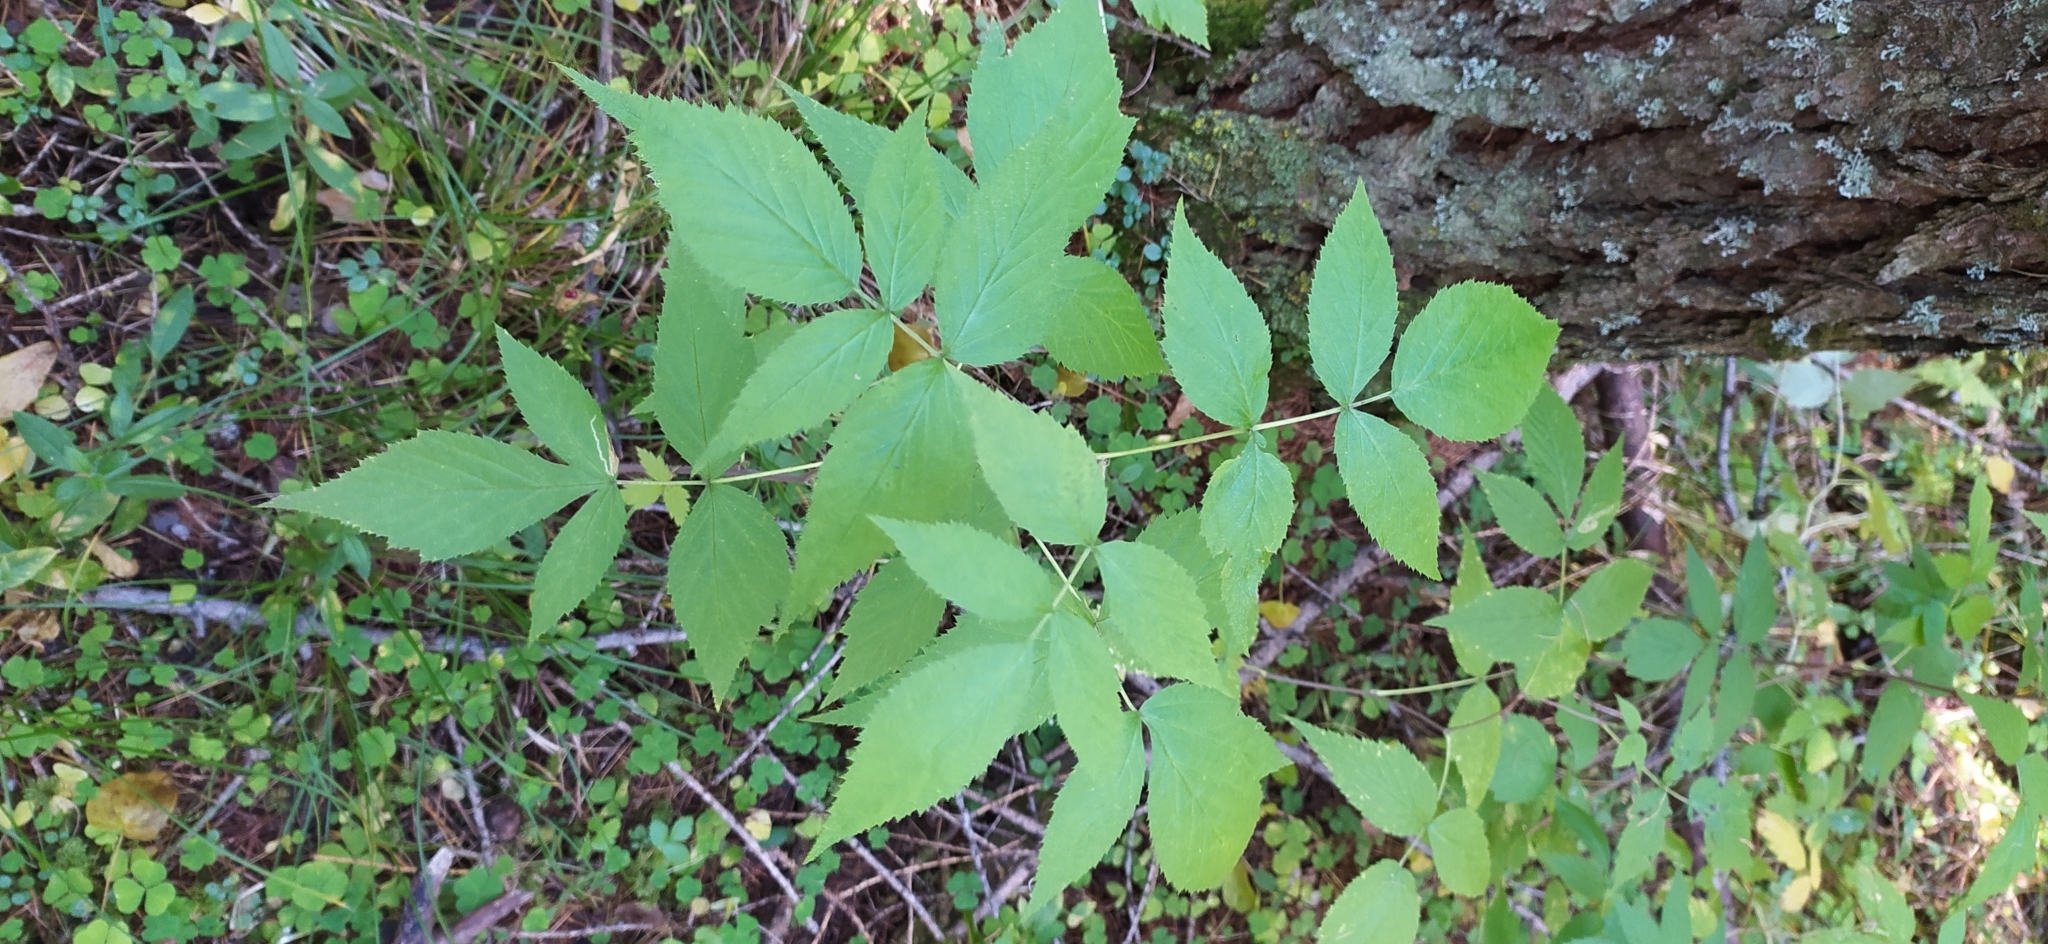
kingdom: Plantae
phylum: Tracheophyta
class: Magnoliopsida
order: Rosales
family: Rosaceae
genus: Rubus
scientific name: Rubus idaeus
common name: Raspberry
